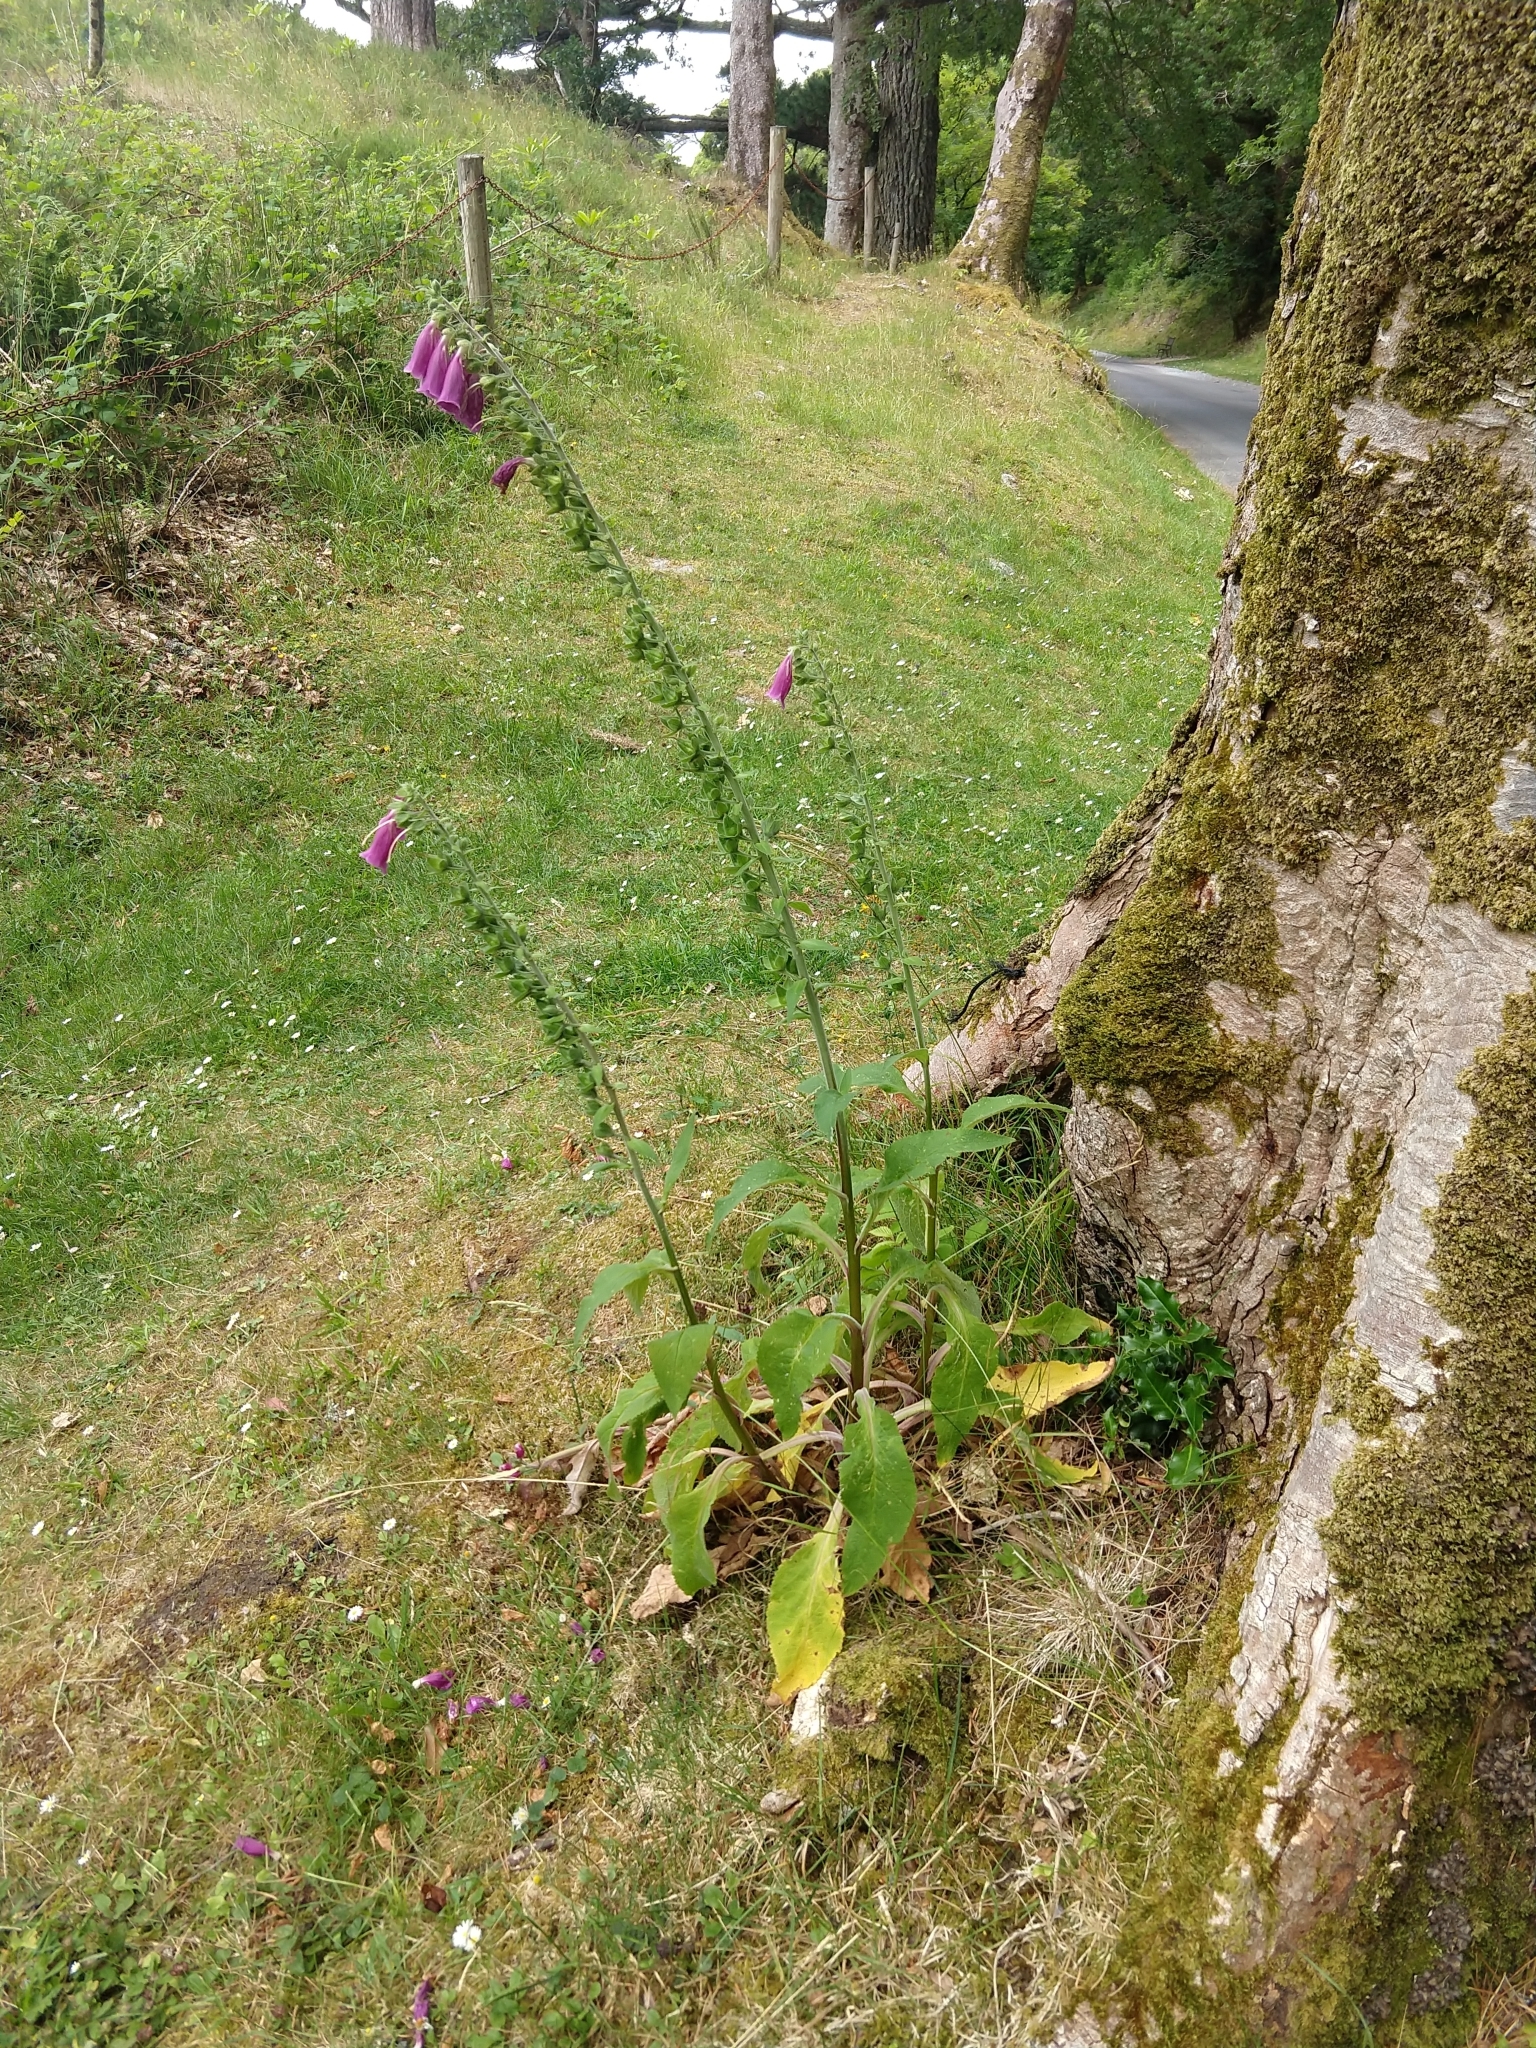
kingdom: Plantae
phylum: Tracheophyta
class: Magnoliopsida
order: Lamiales
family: Plantaginaceae
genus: Digitalis
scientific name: Digitalis purpurea
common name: Foxglove
